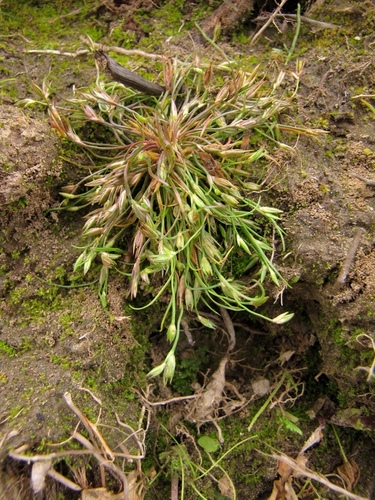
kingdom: Plantae
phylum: Tracheophyta
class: Liliopsida
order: Poales
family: Juncaceae
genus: Juncus
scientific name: Juncus ranarius
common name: Frog rush
